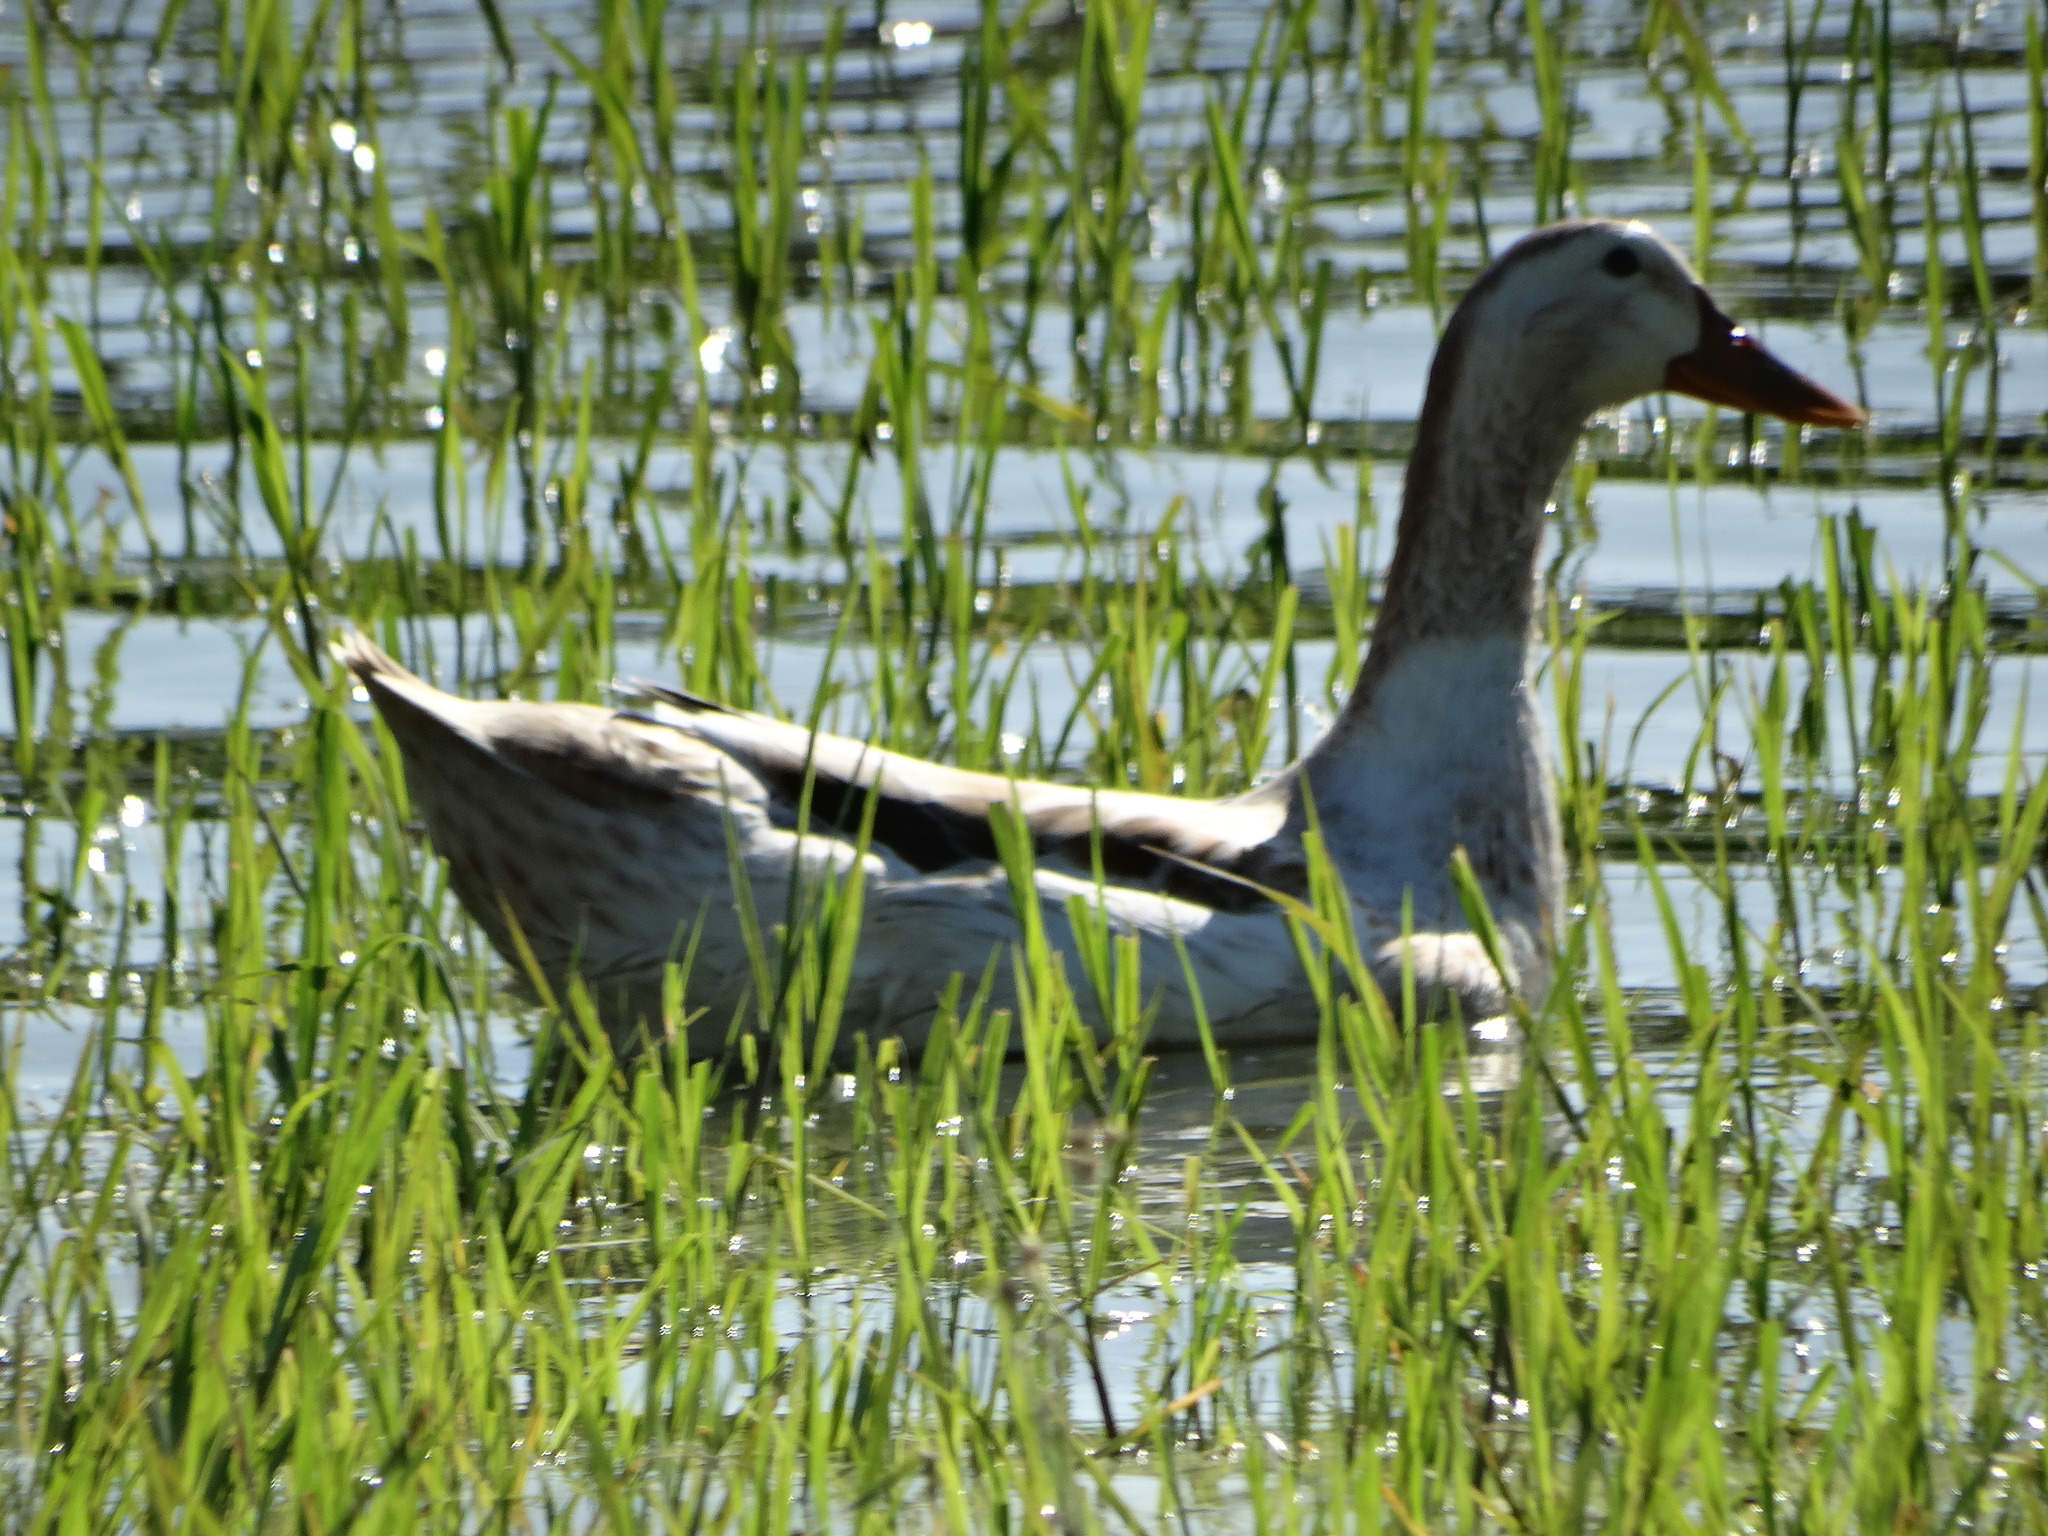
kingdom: Animalia
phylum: Chordata
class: Aves
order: Anseriformes
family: Anatidae
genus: Anas
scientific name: Anas platyrhynchos
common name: Mallard
